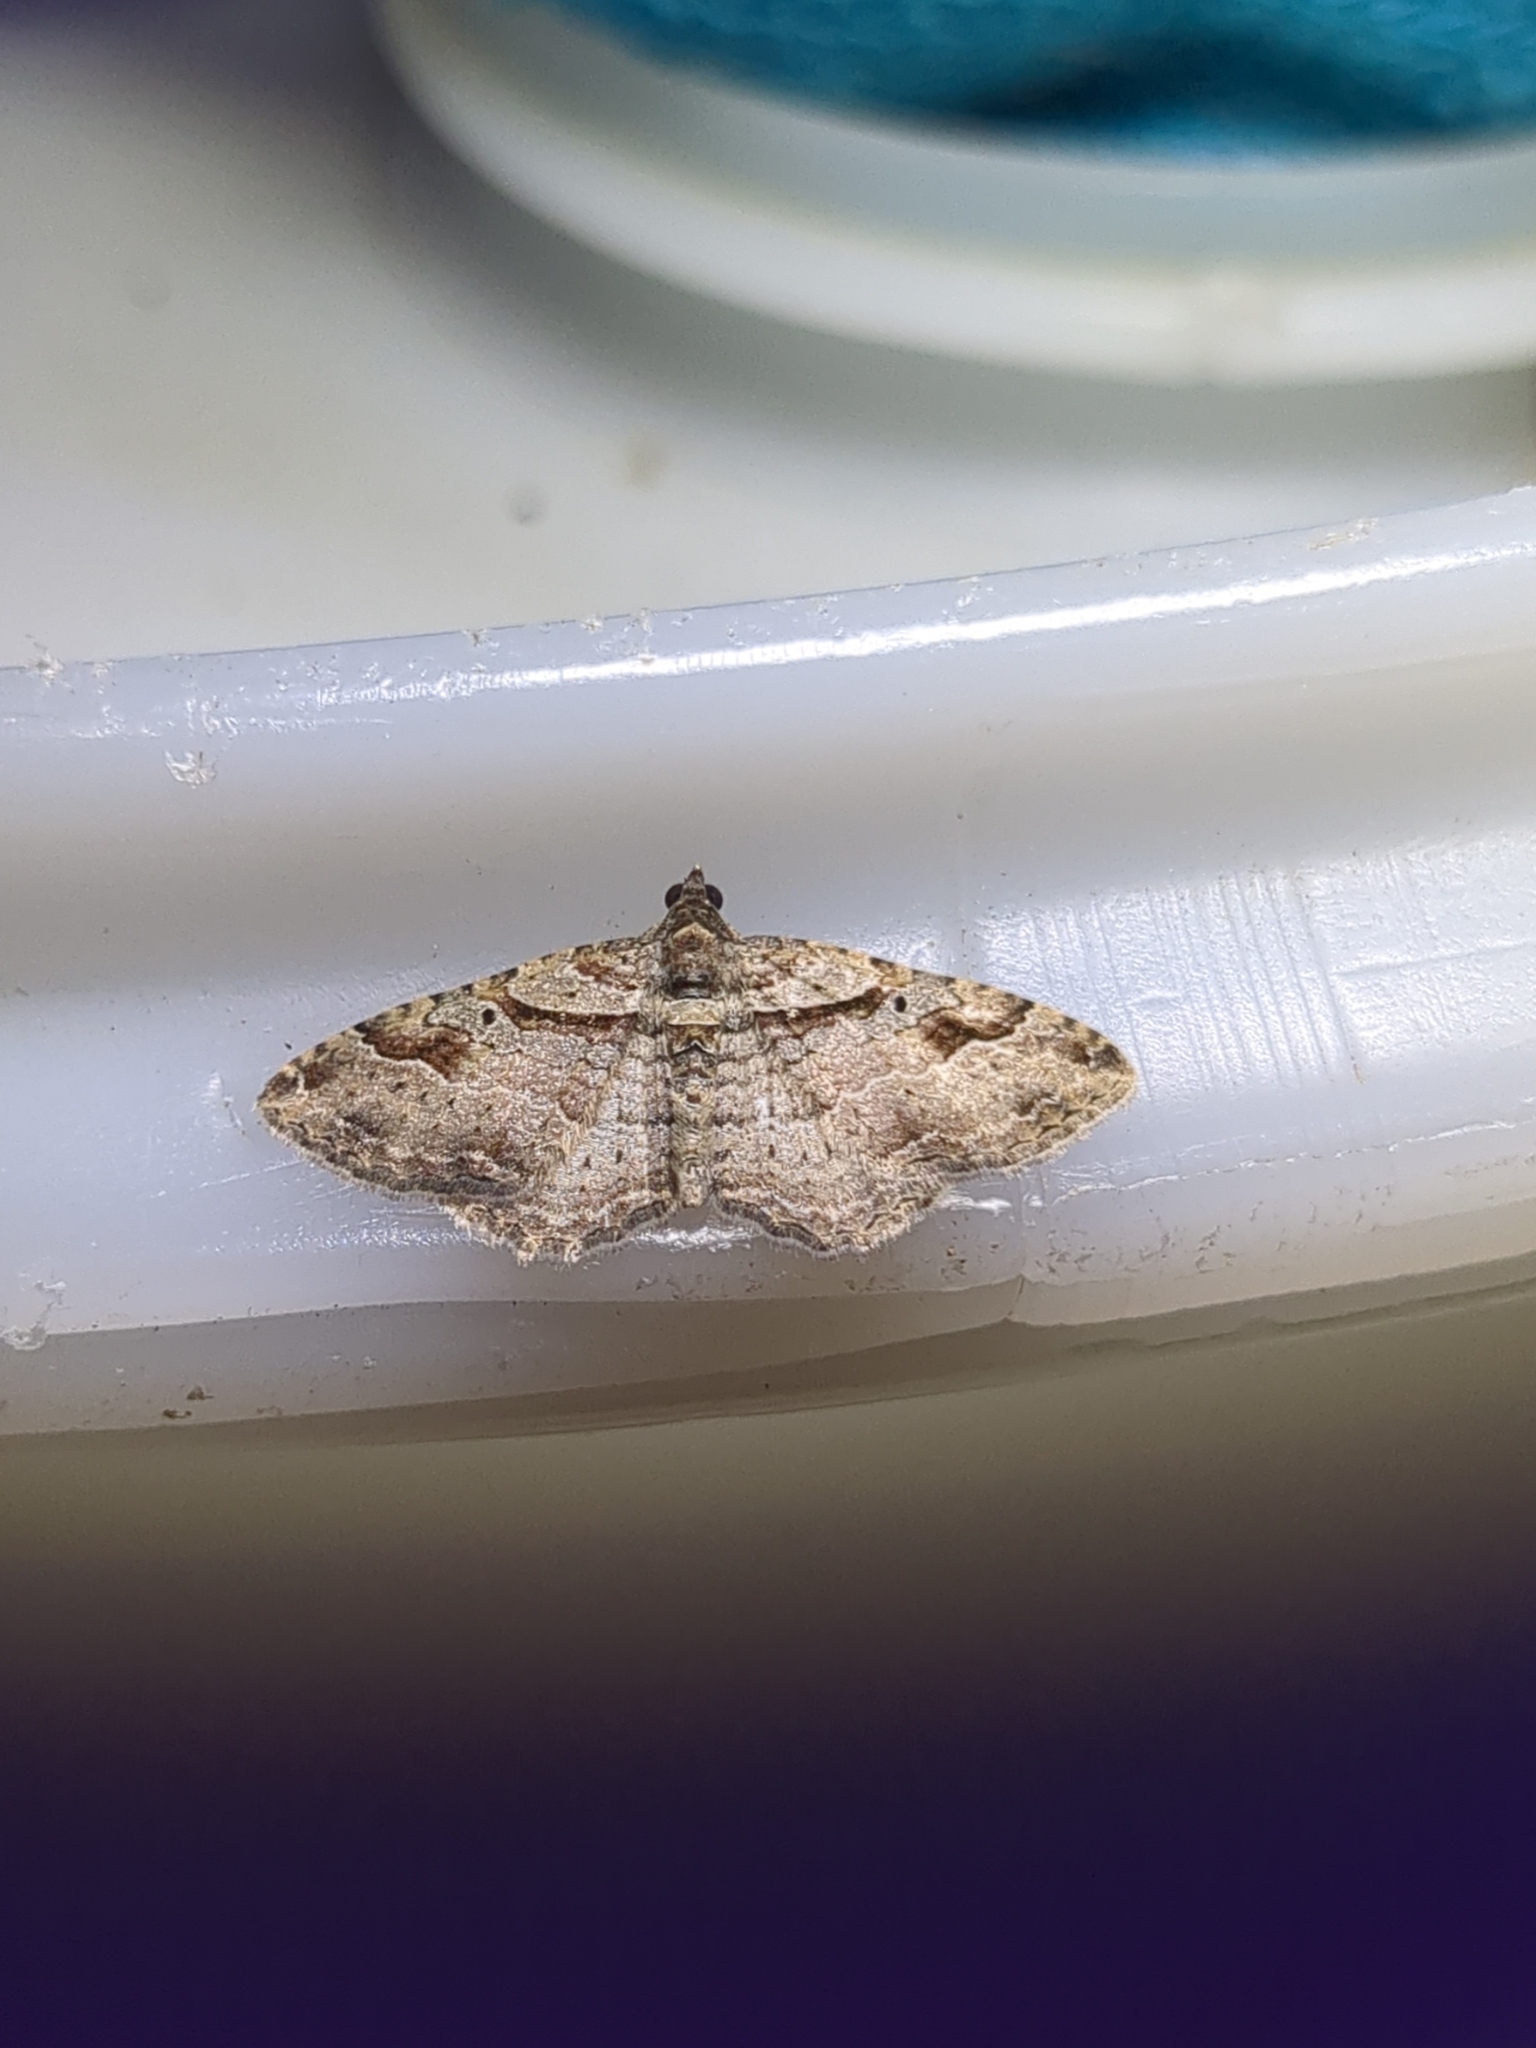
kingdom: Animalia
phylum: Arthropoda
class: Insecta
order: Lepidoptera
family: Geometridae
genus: Costaconvexa
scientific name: Costaconvexa centrostrigaria
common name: Bent-line carpet
